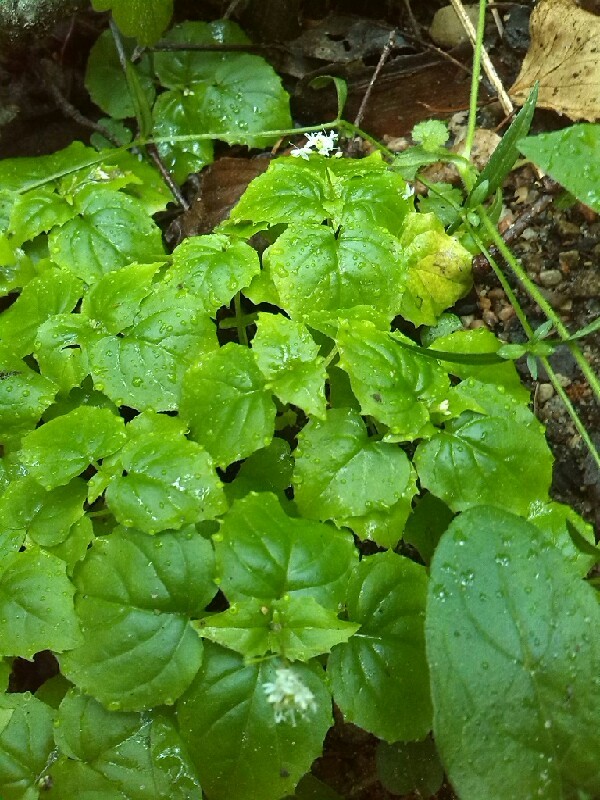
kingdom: Plantae
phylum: Tracheophyta
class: Magnoliopsida
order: Myrtales
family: Onagraceae
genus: Circaea
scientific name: Circaea alpina
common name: Alpine enchanter's-nightshade
